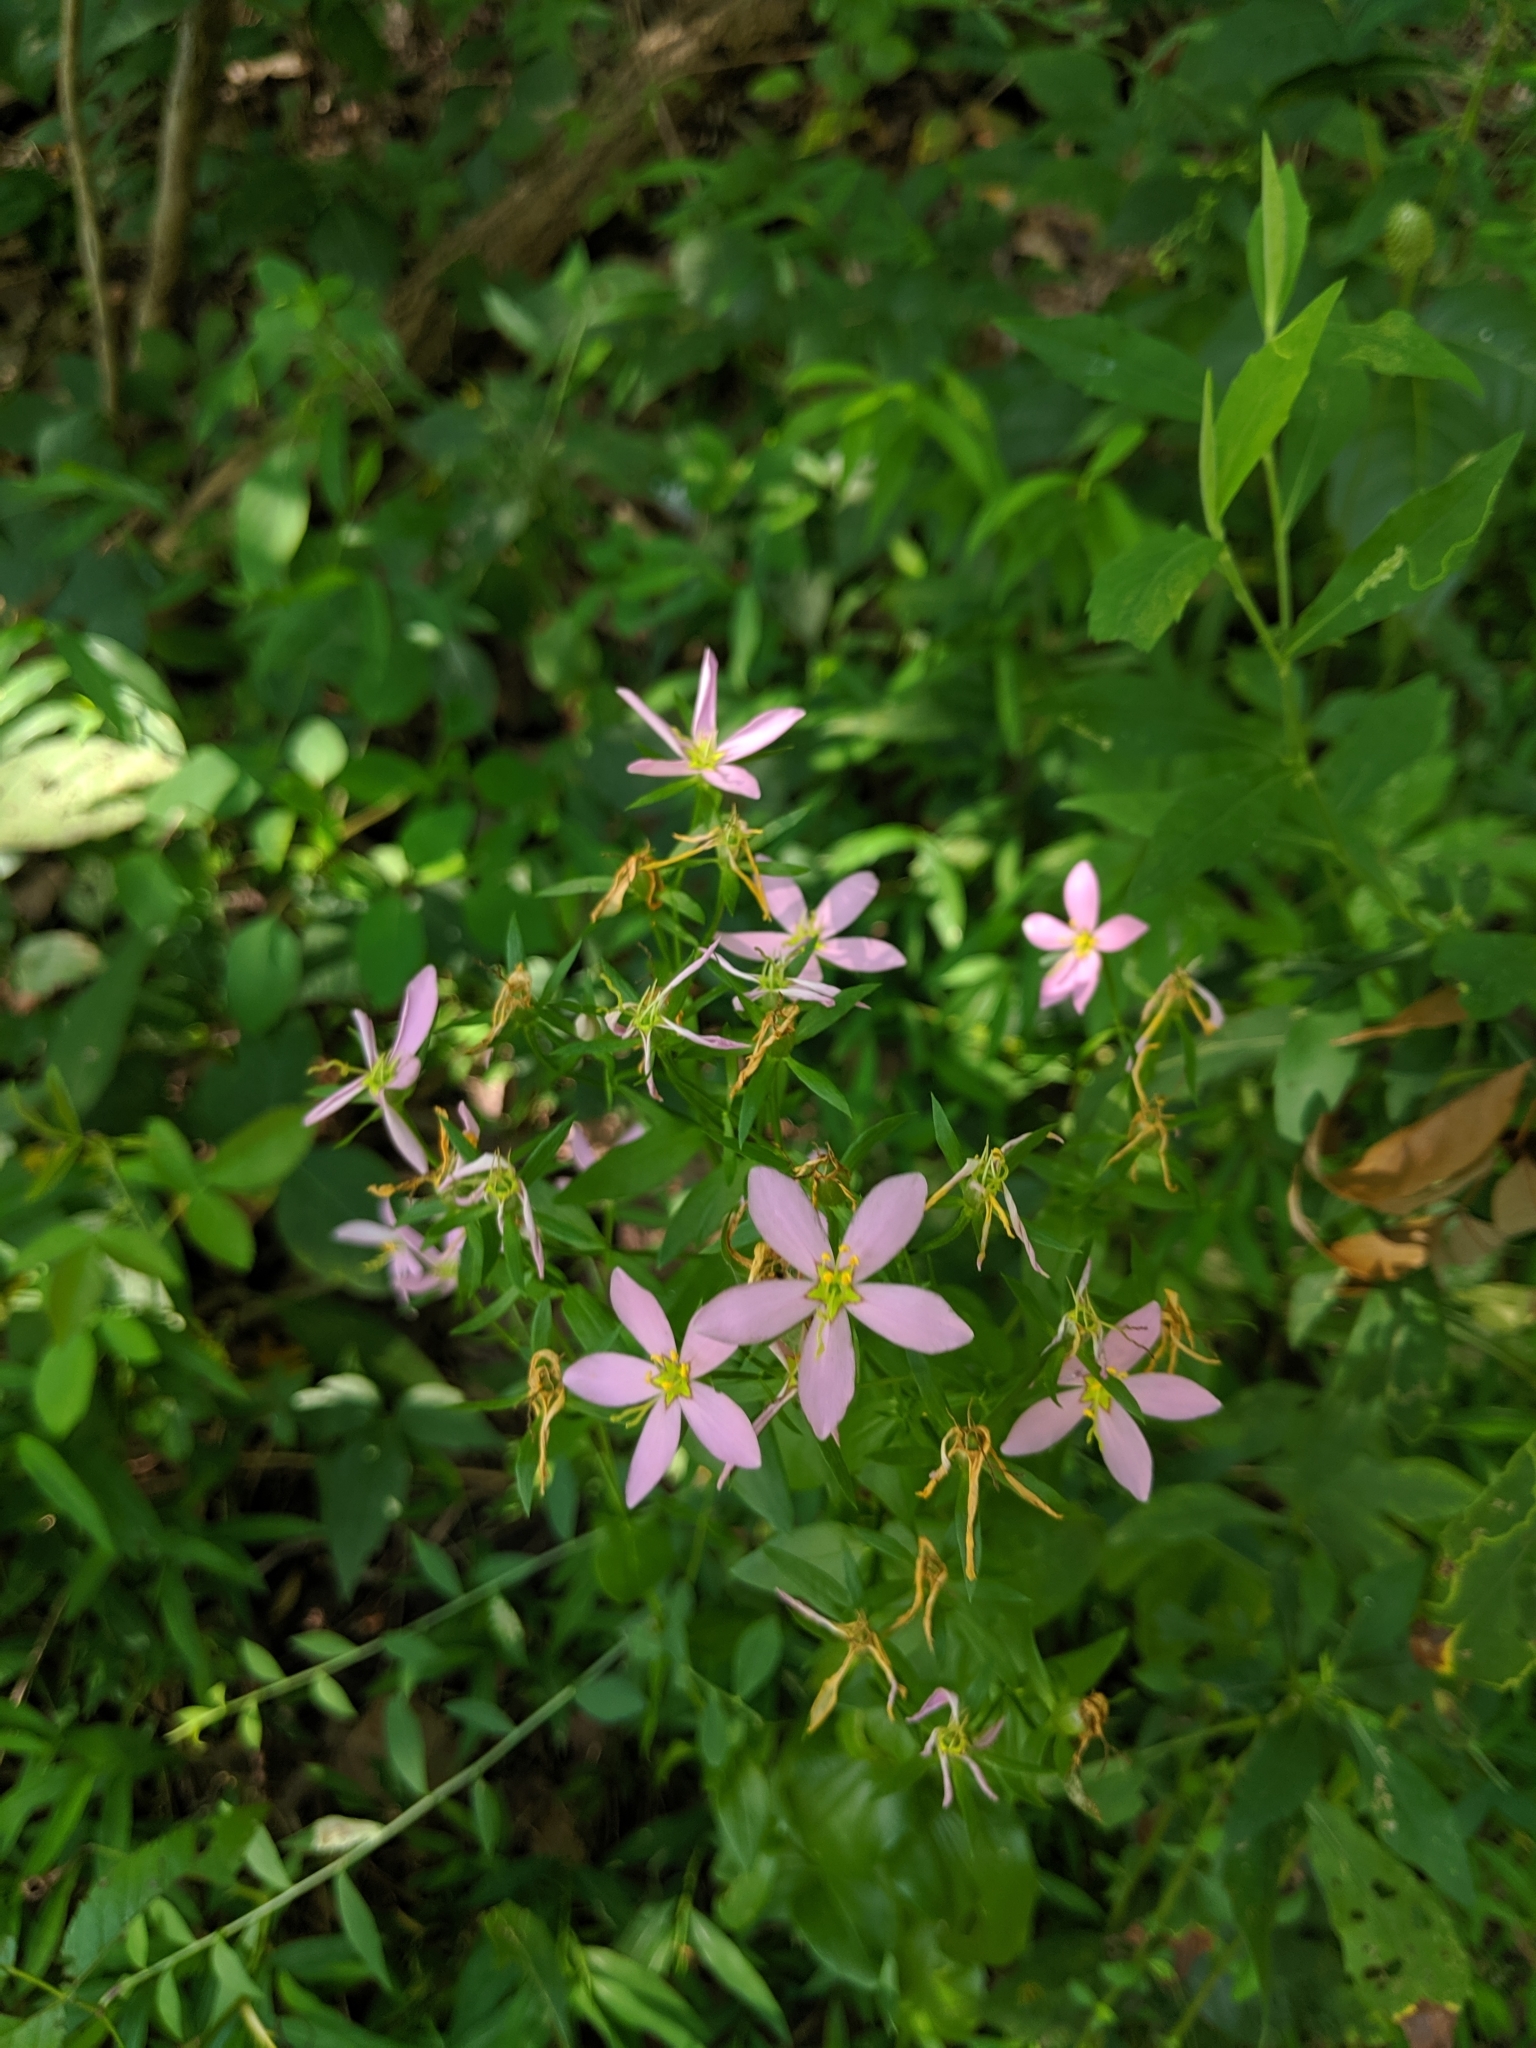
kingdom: Plantae
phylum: Tracheophyta
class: Magnoliopsida
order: Gentianales
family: Gentianaceae
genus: Sabatia
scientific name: Sabatia angularis
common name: Rose-pink
